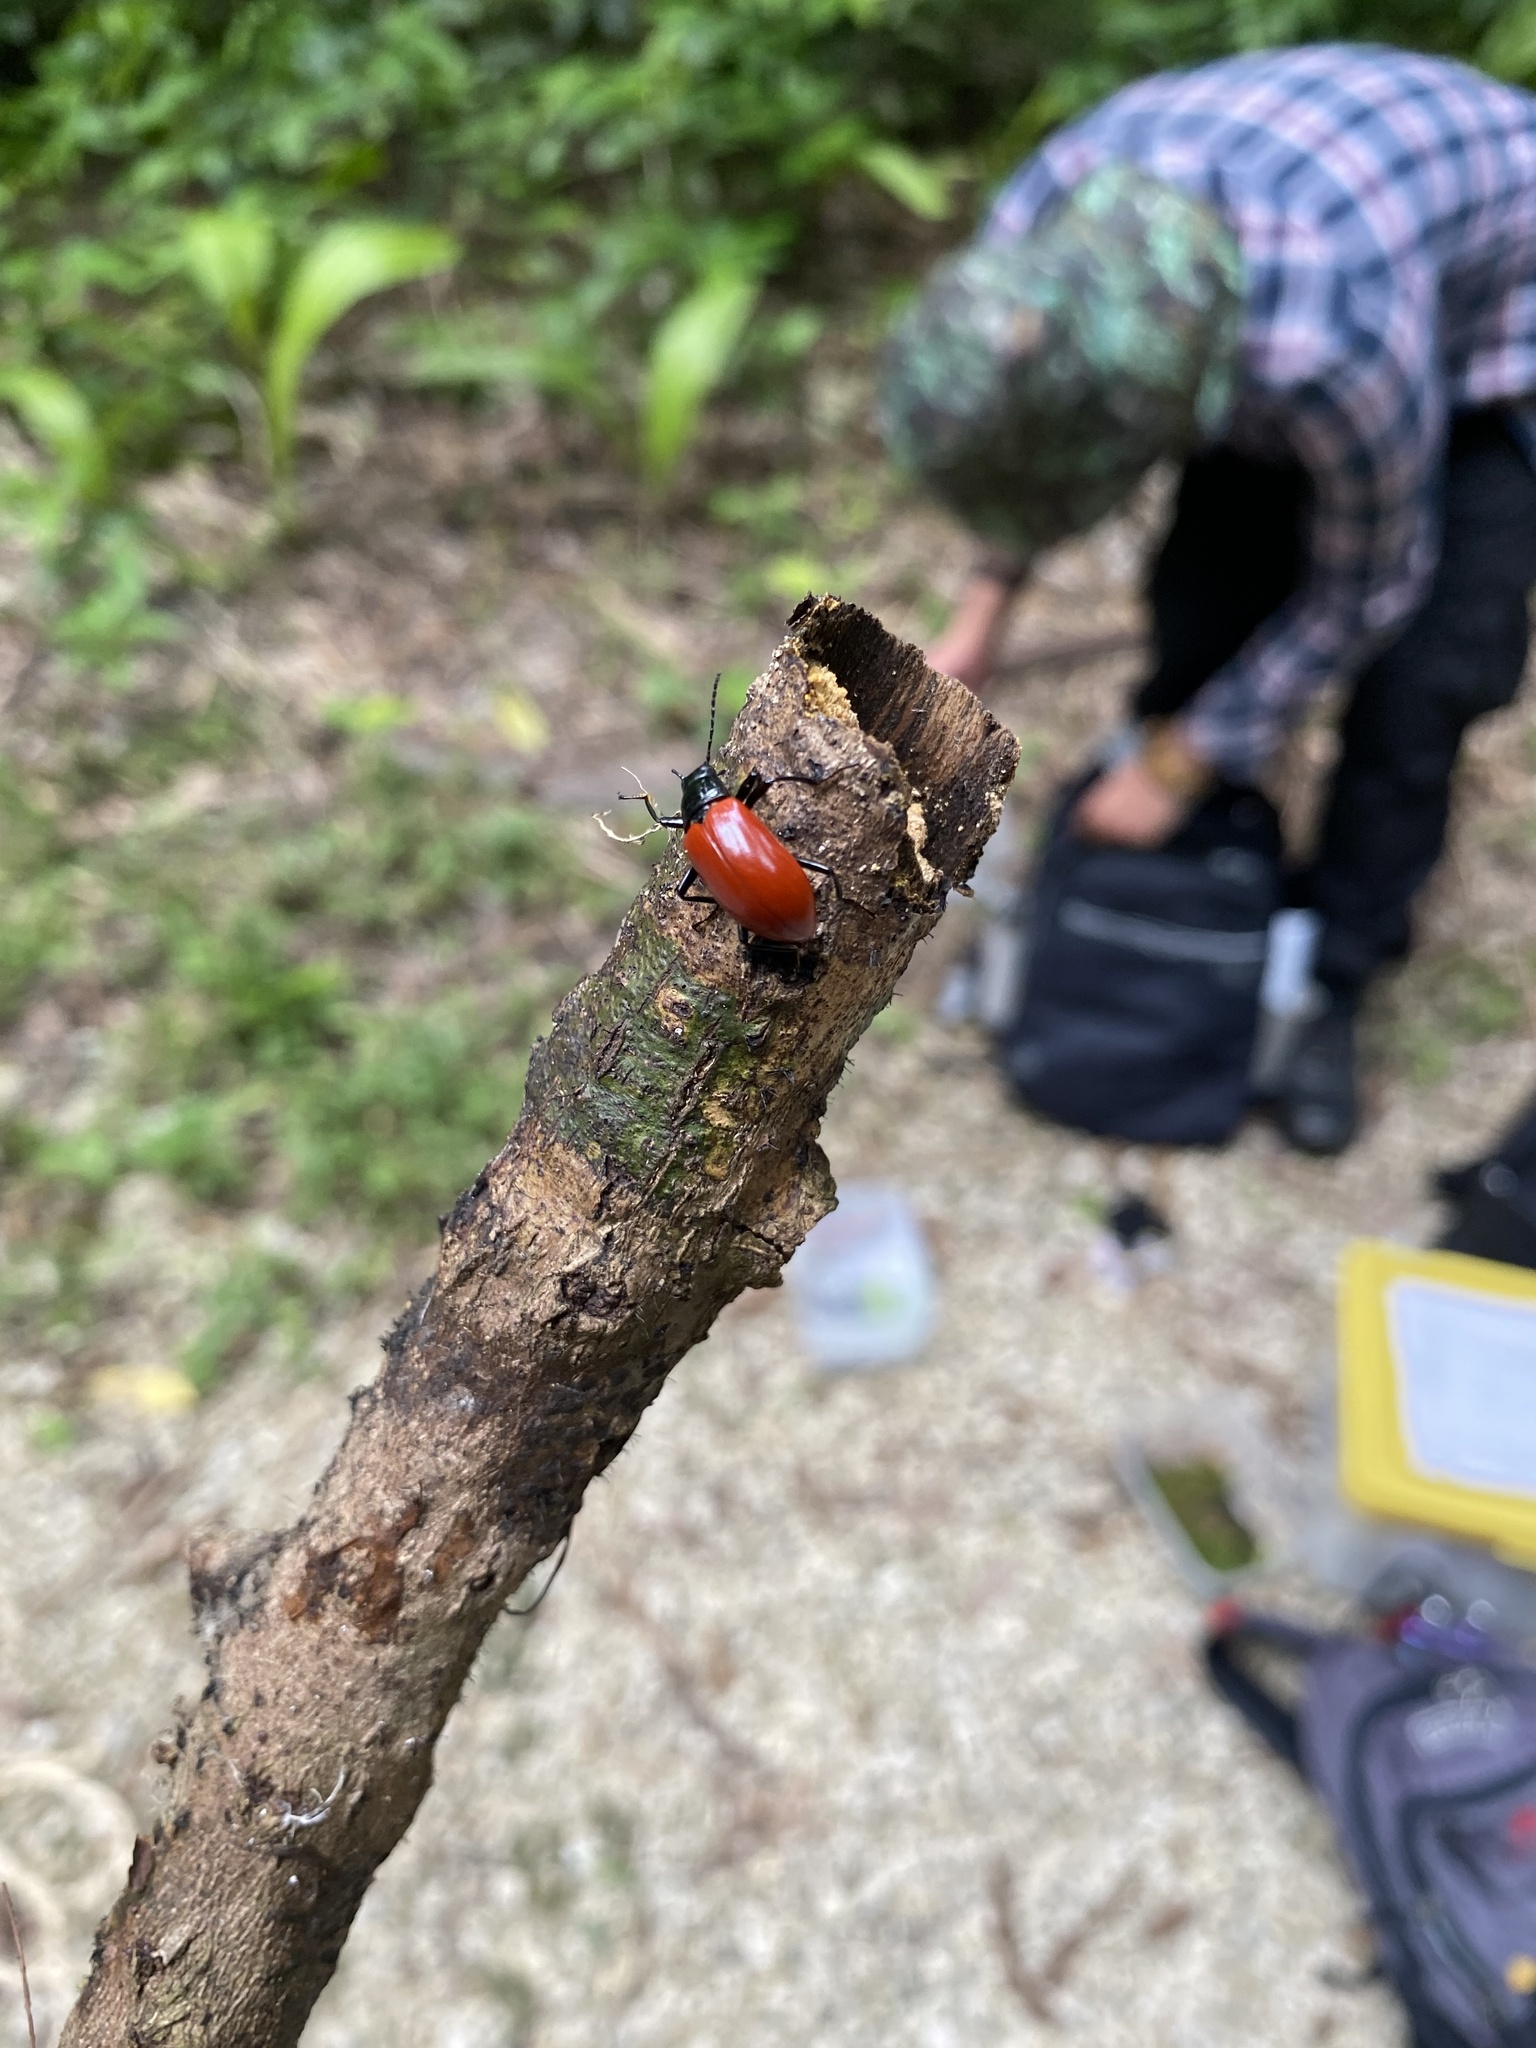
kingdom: Animalia
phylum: Arthropoda
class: Insecta
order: Coleoptera
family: Tenebrionidae
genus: Strongylium
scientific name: Strongylium
